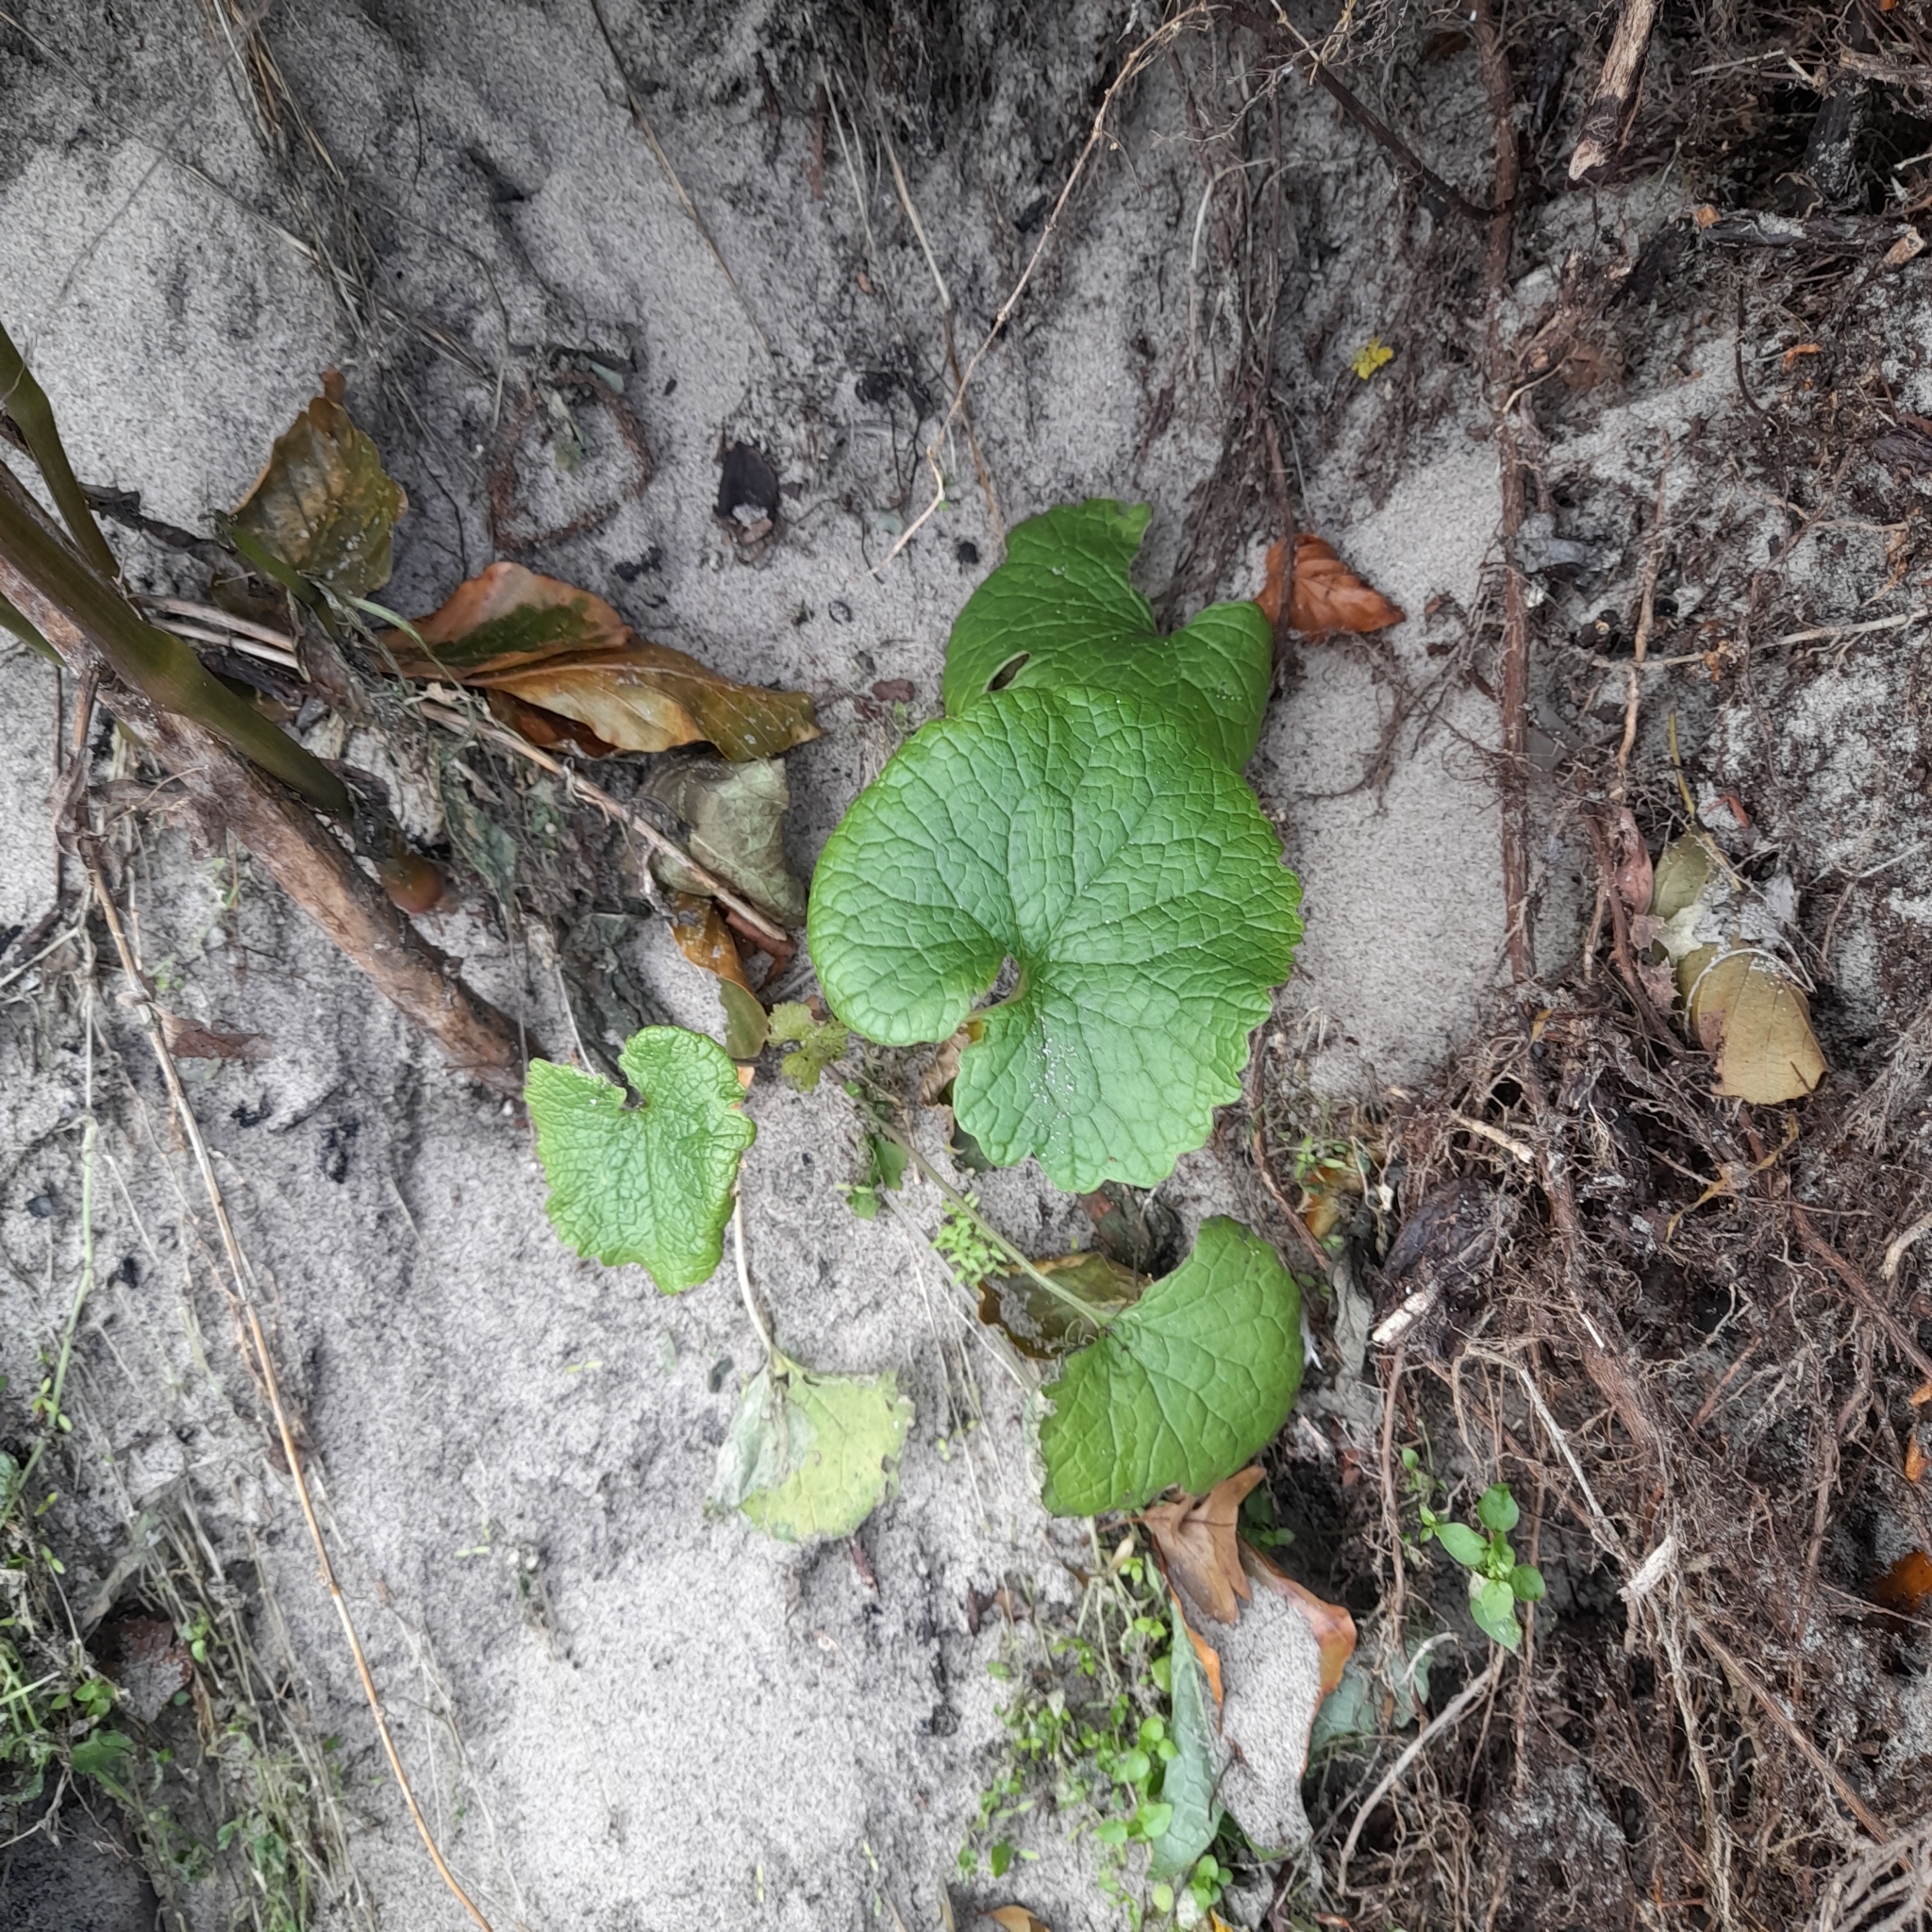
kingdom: Plantae
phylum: Tracheophyta
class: Magnoliopsida
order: Brassicales
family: Brassicaceae
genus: Alliaria
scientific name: Alliaria petiolata
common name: Garlic mustard
